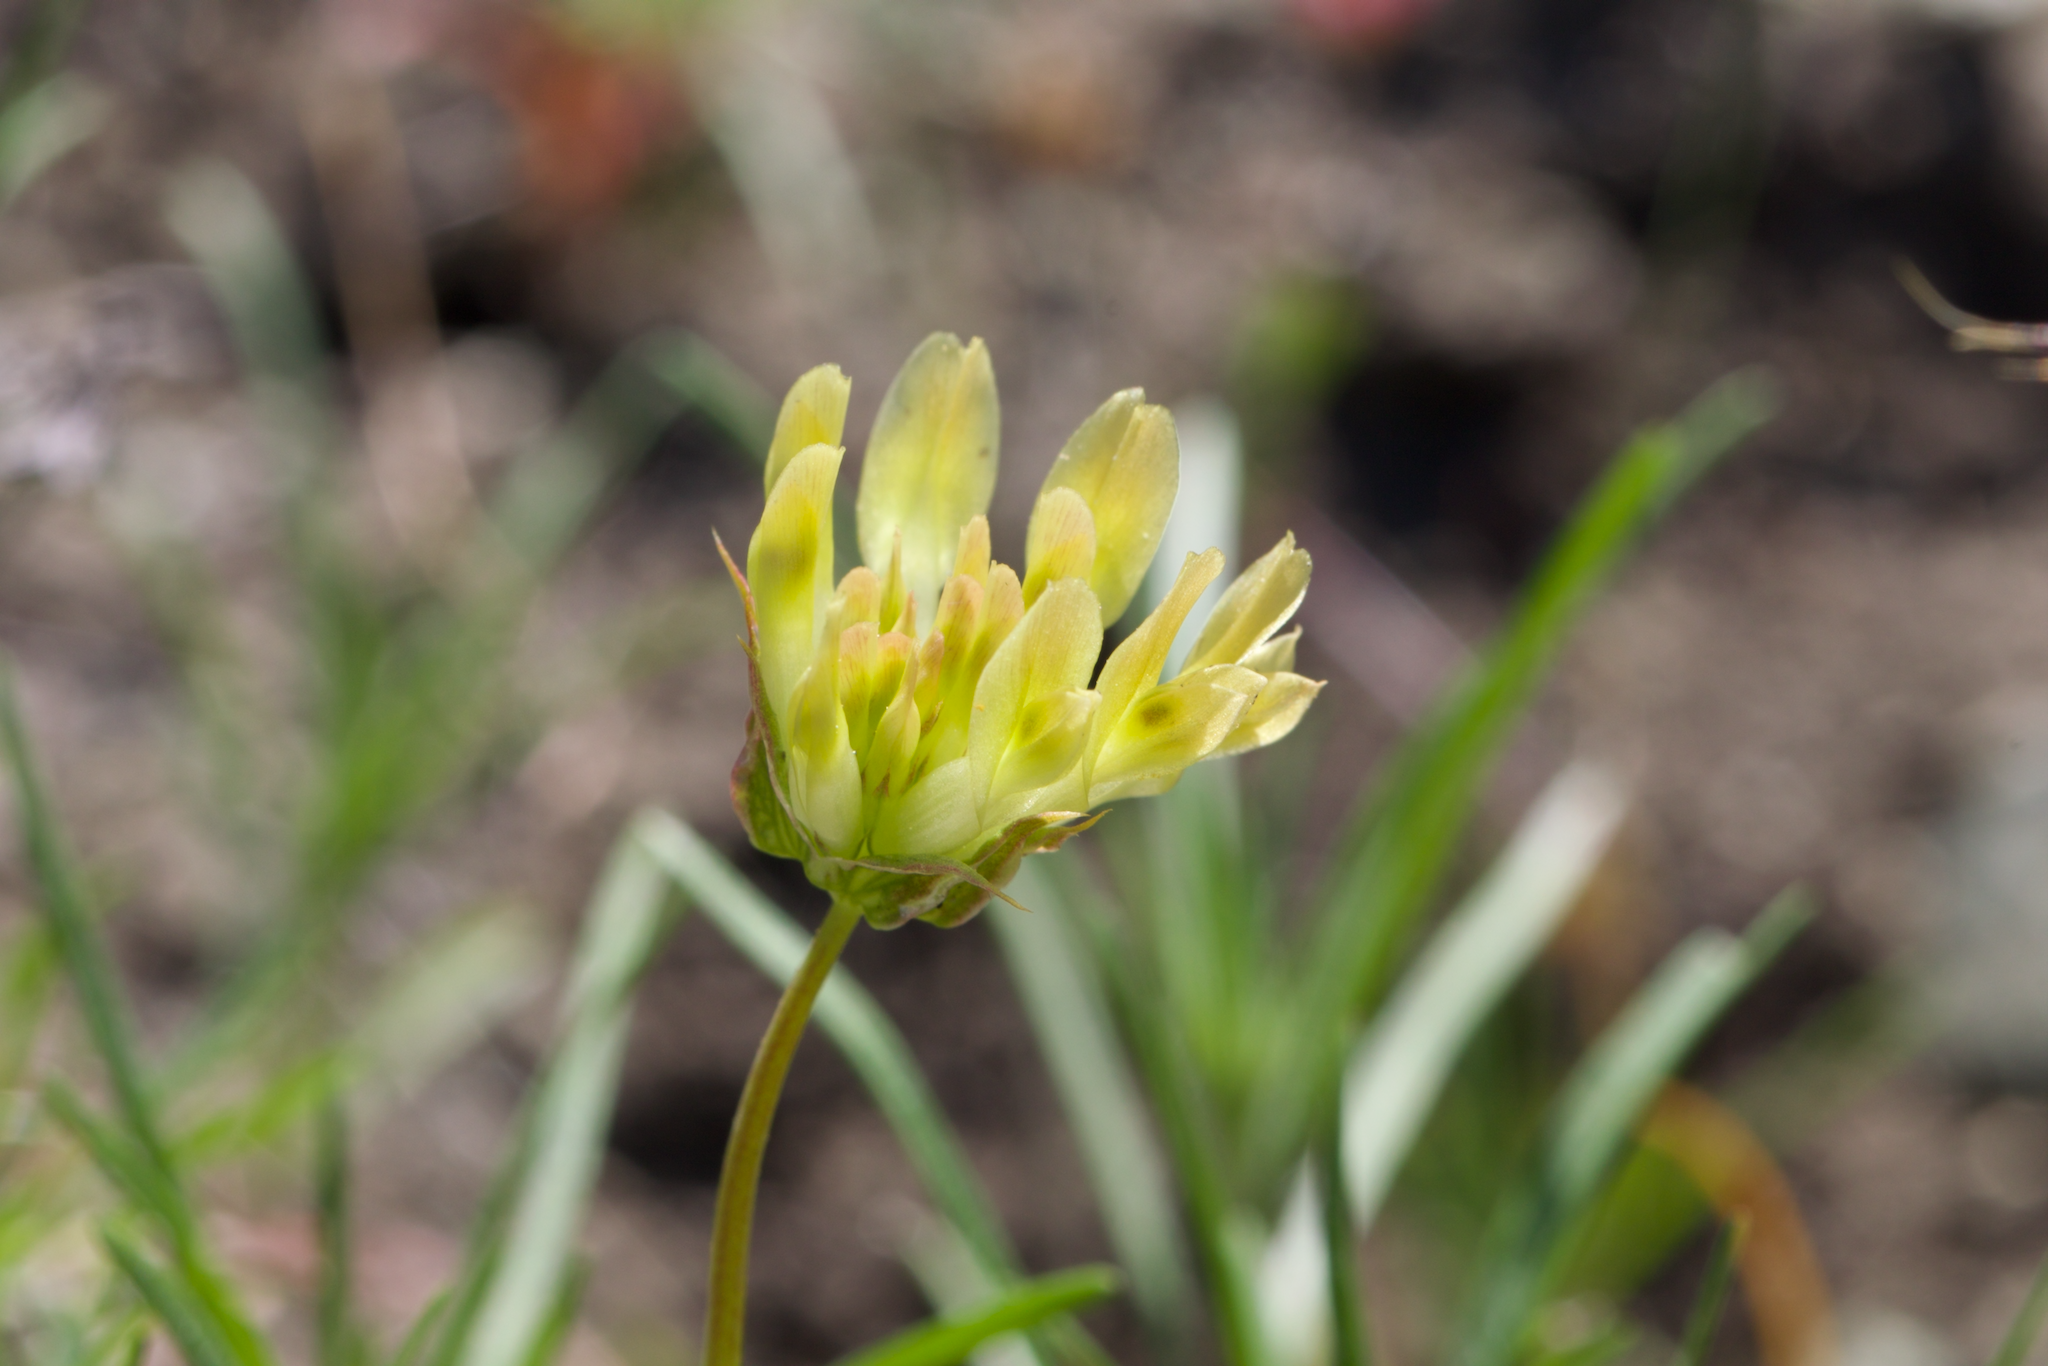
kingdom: Plantae
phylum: Tracheophyta
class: Magnoliopsida
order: Fabales
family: Fabaceae
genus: Trifolium
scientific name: Trifolium fucatum
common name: Puff clover
